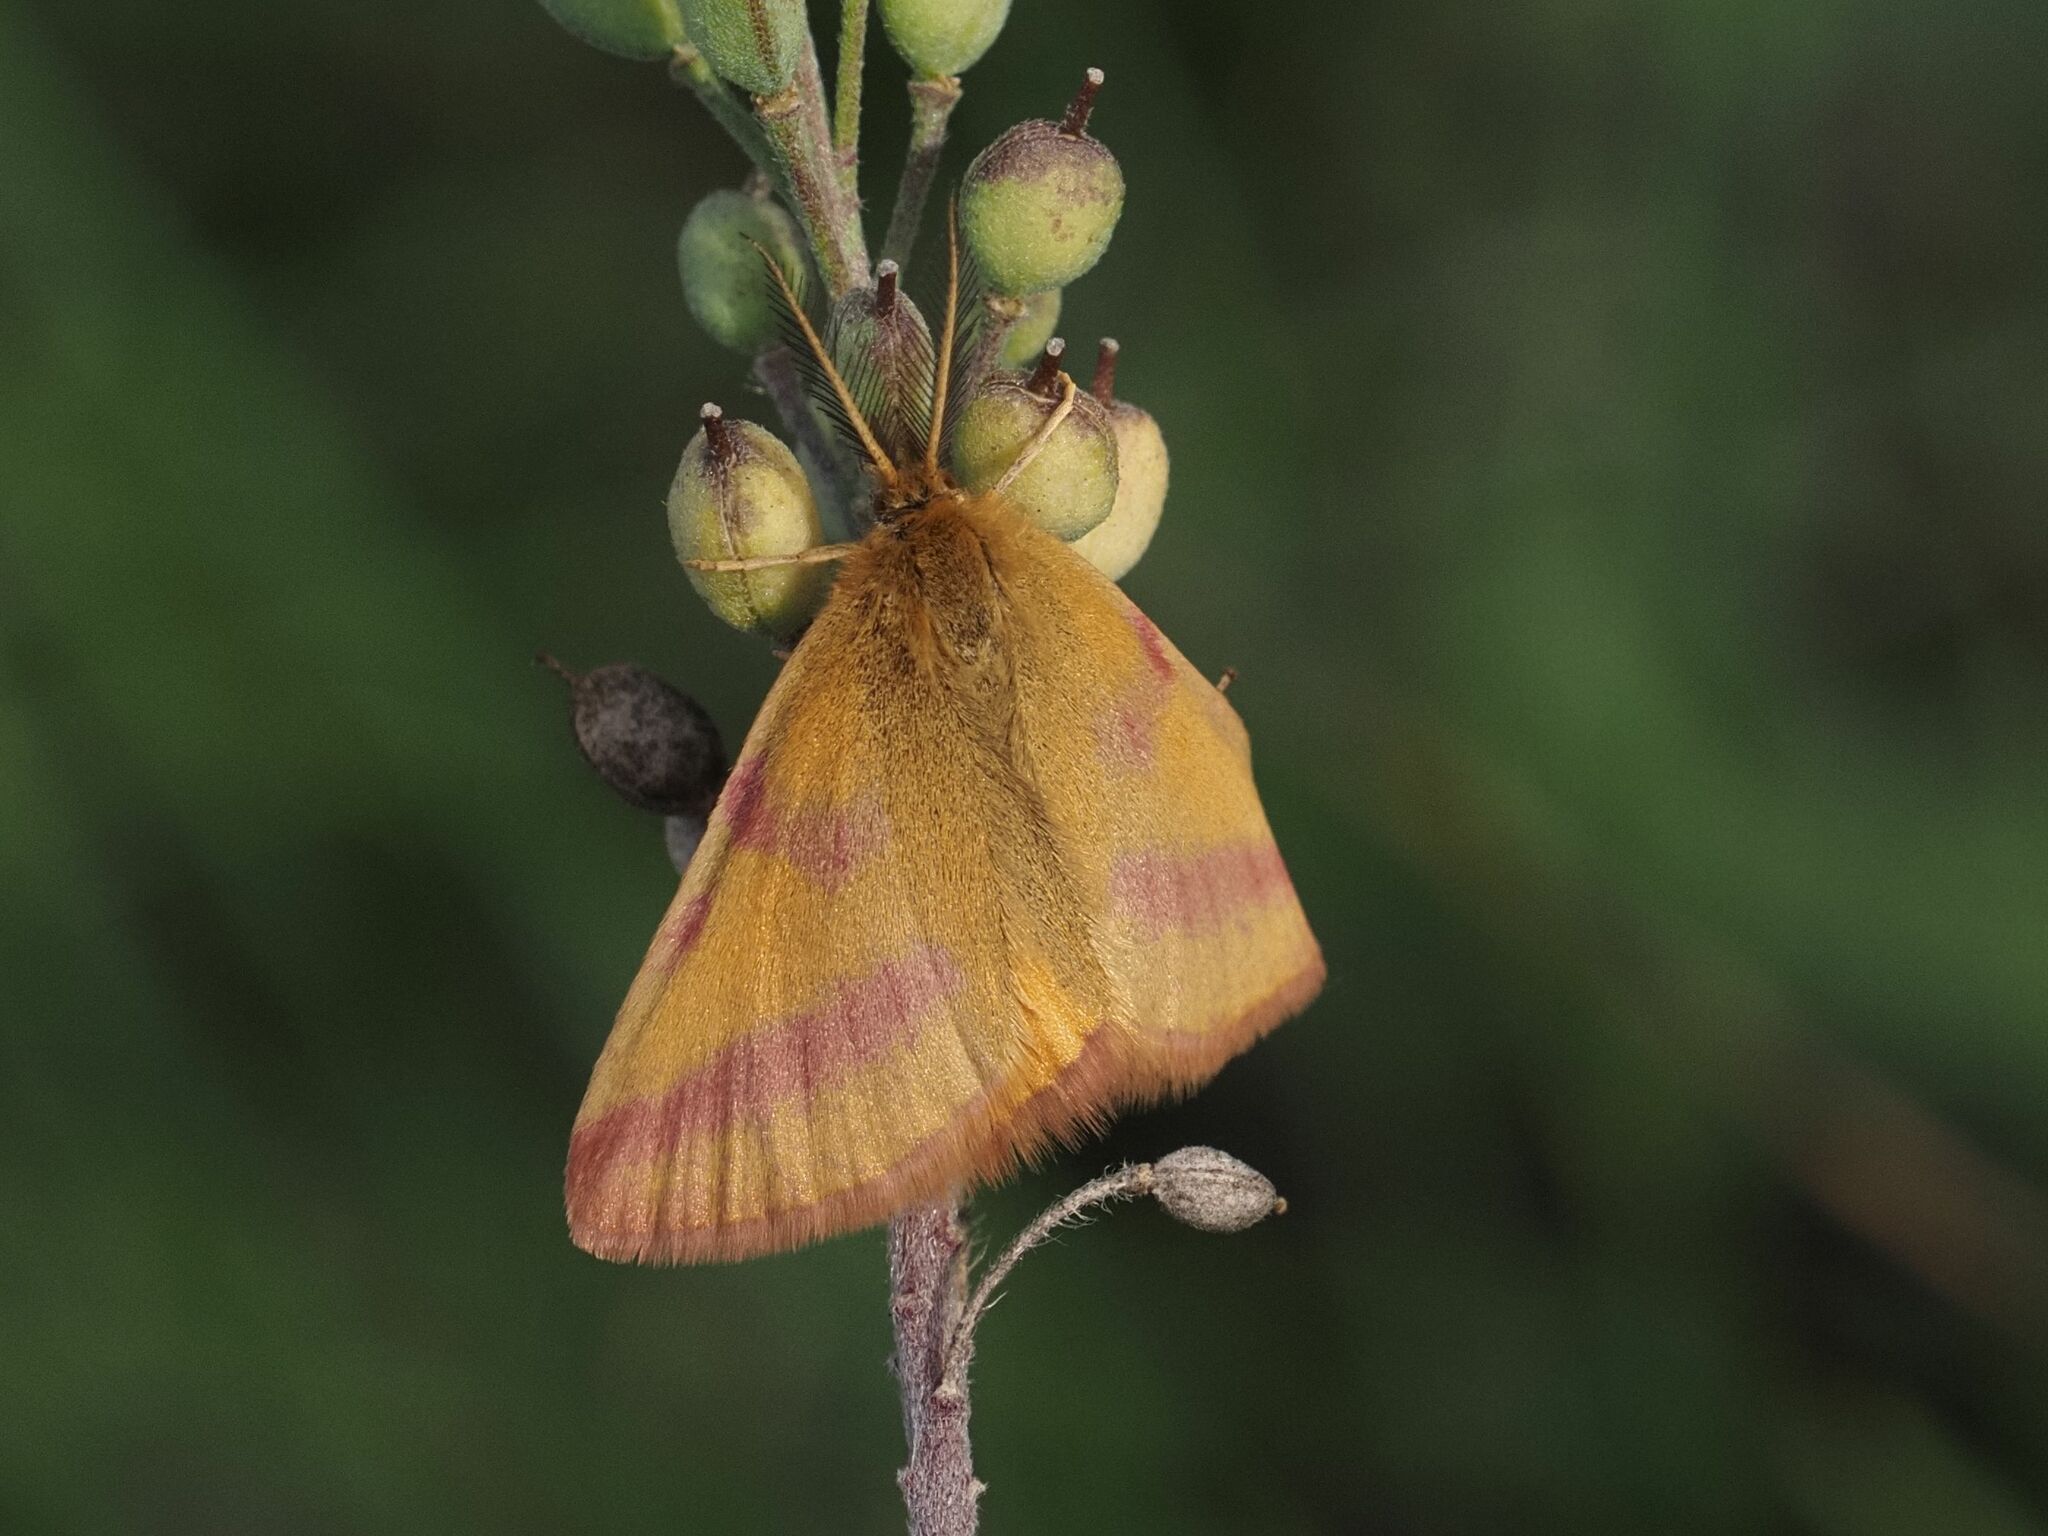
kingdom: Animalia
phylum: Arthropoda
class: Insecta
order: Lepidoptera
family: Geometridae
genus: Lythria
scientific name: Lythria purpuraria
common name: Purple-barred yellow
